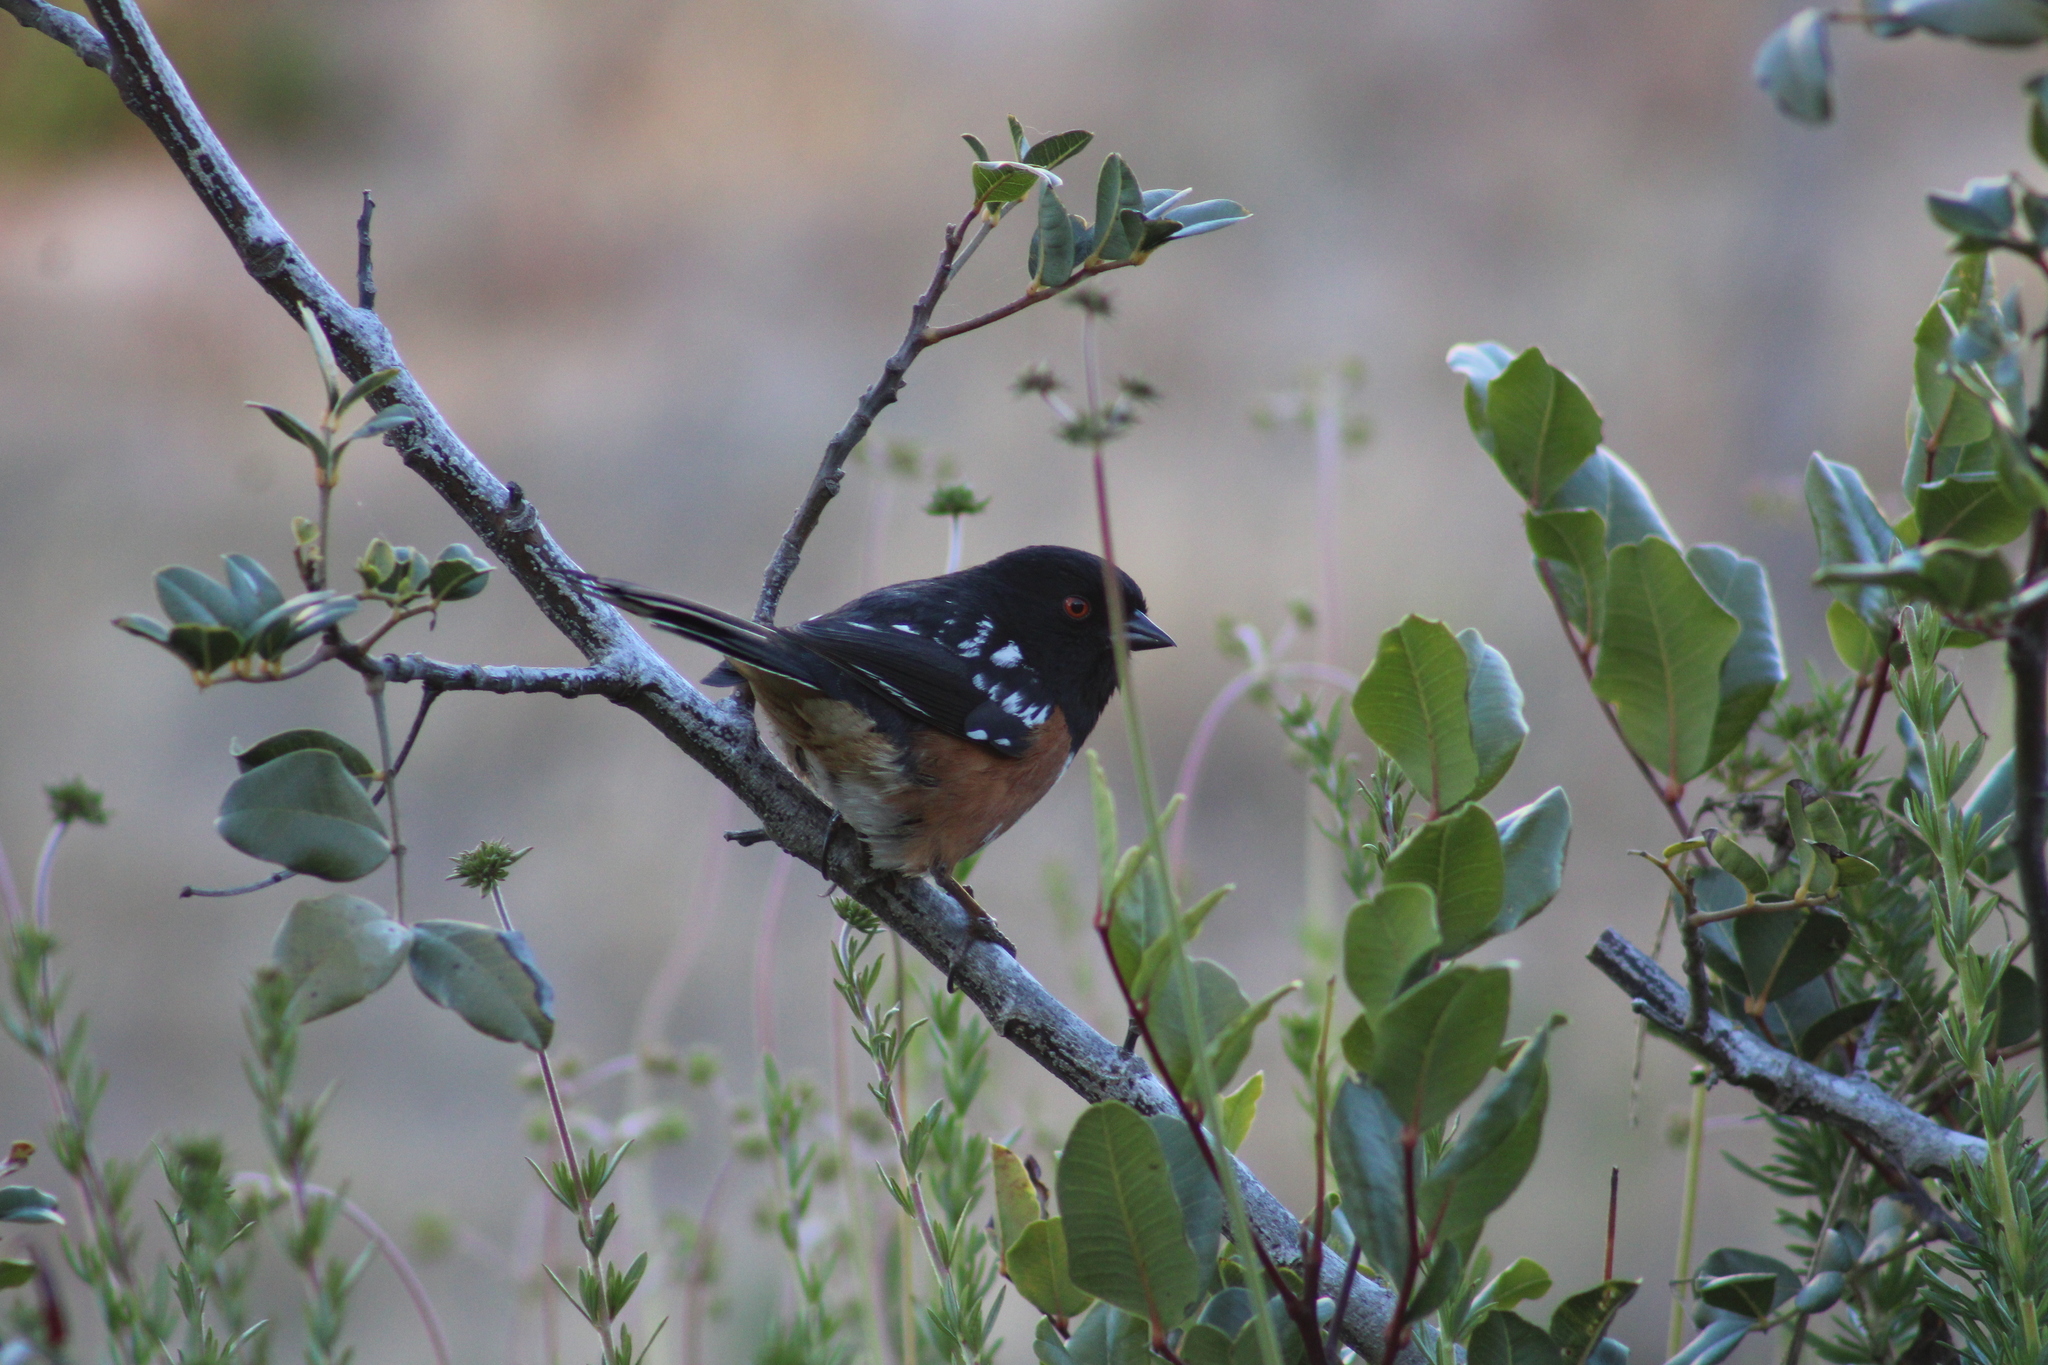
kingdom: Animalia
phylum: Chordata
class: Aves
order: Passeriformes
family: Passerellidae
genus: Pipilo
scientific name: Pipilo maculatus
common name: Spotted towhee
